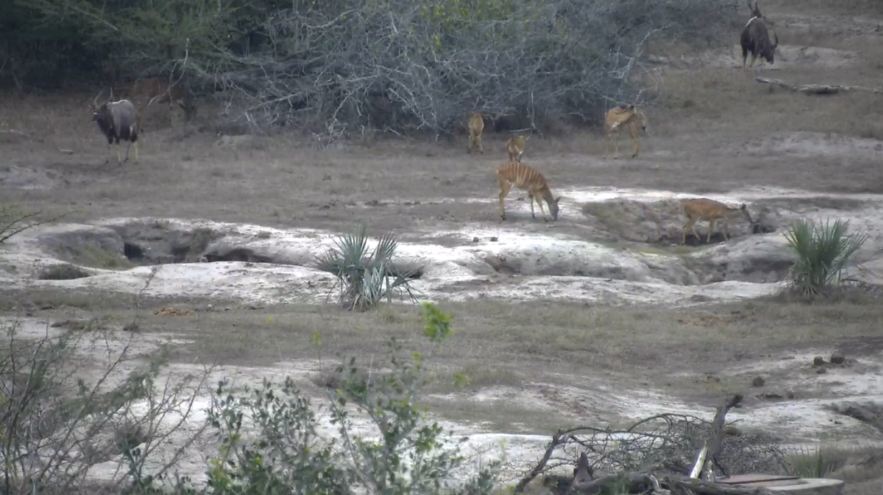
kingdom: Animalia
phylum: Chordata
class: Mammalia
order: Artiodactyla
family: Bovidae
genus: Tragelaphus
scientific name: Tragelaphus angasii
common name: Nyala
